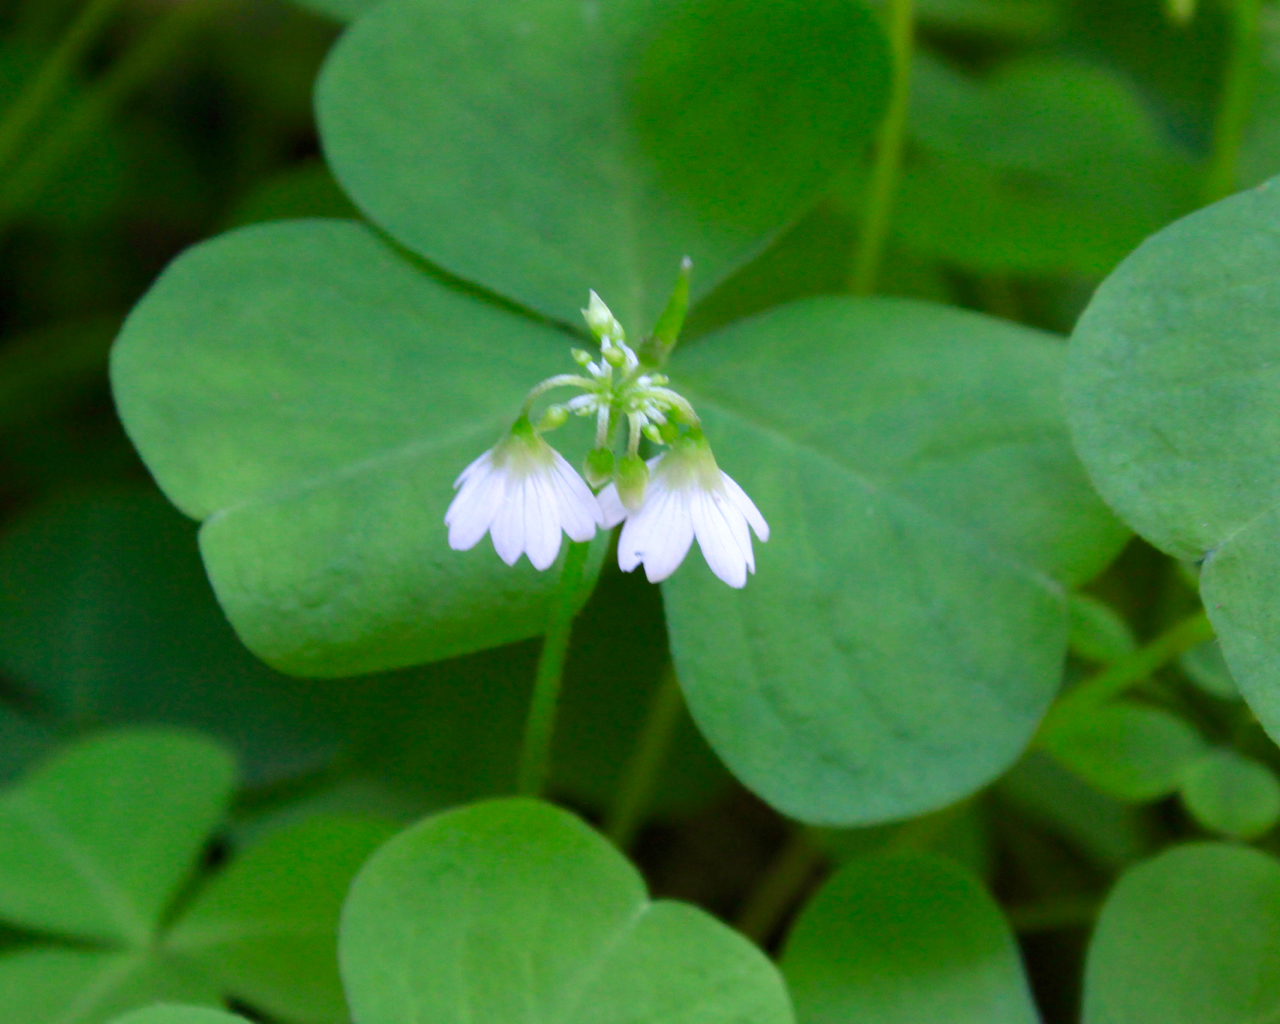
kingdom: Plantae
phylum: Tracheophyta
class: Magnoliopsida
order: Oxalidales
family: Oxalidaceae
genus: Oxalis
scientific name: Oxalis trilliifolia
